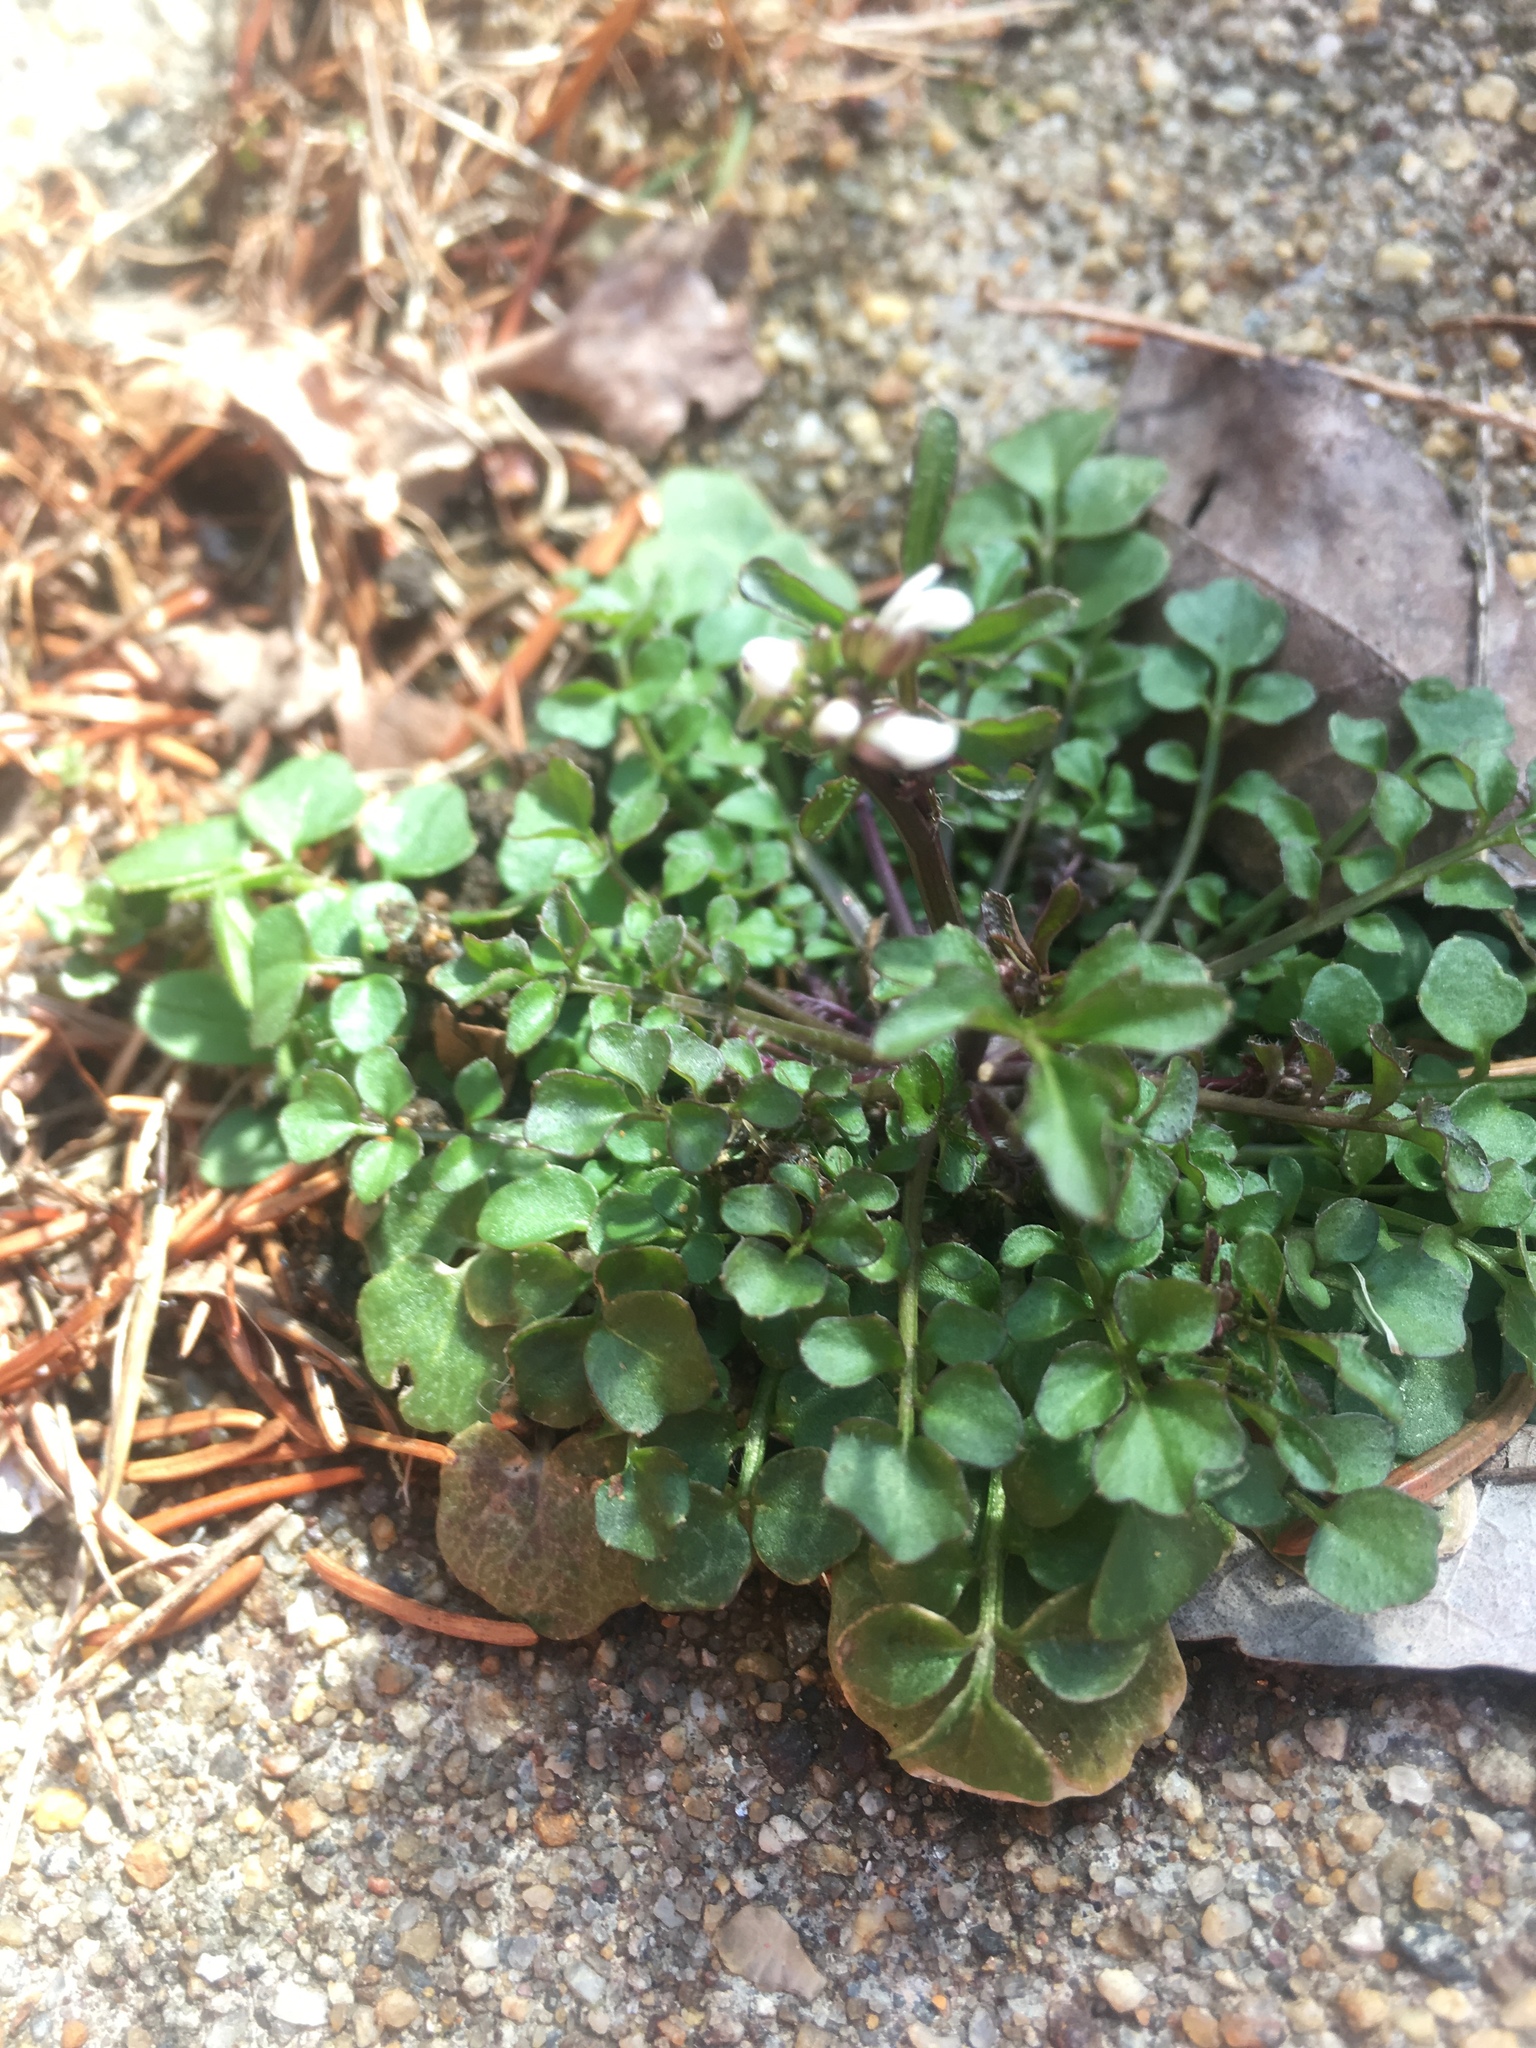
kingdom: Plantae
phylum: Tracheophyta
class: Magnoliopsida
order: Brassicales
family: Brassicaceae
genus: Cardamine
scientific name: Cardamine hirsuta
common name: Hairy bittercress
